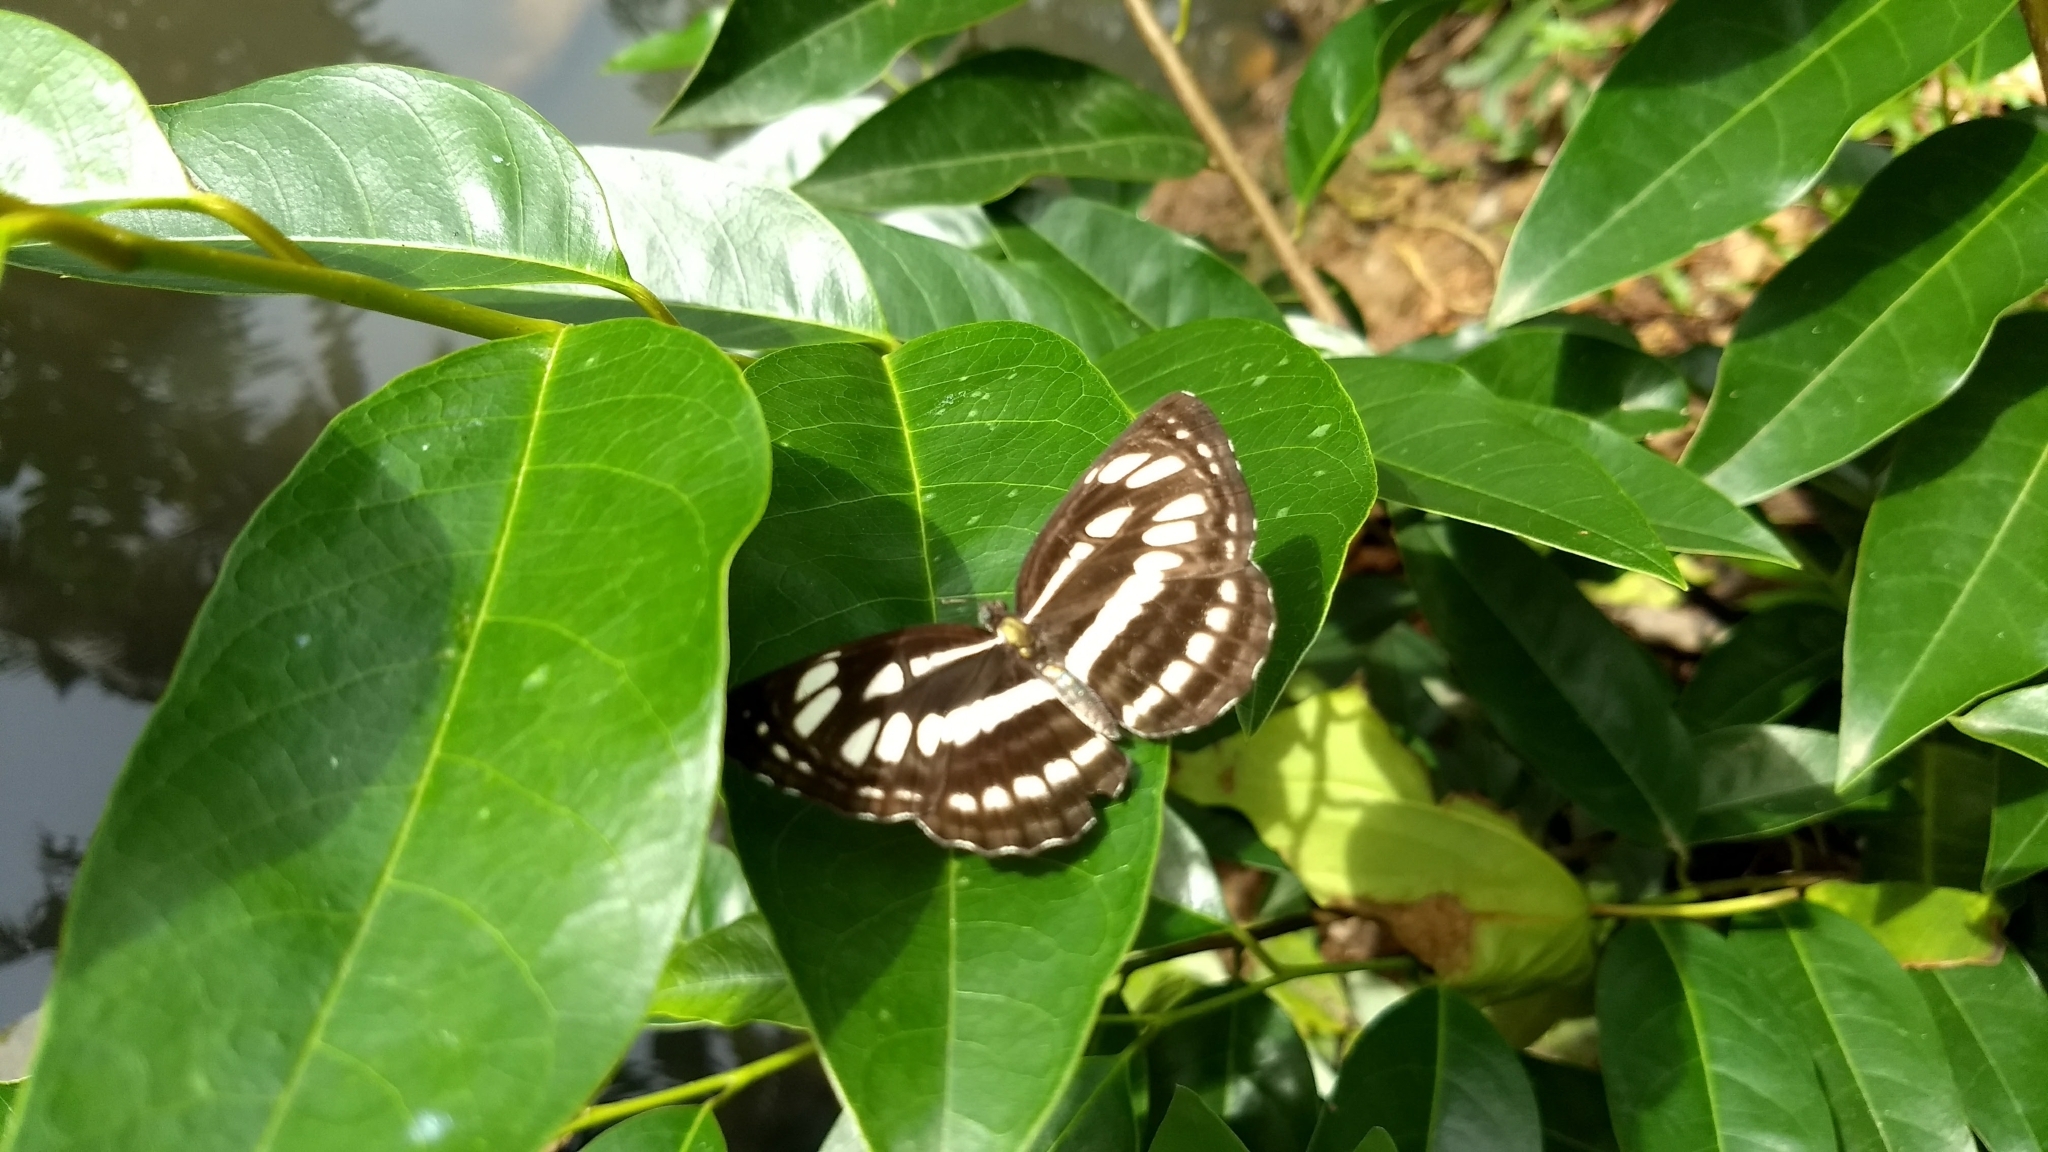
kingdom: Animalia
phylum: Arthropoda
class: Insecta
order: Lepidoptera
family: Nymphalidae
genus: Neptis
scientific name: Neptis hylas
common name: Common sailer
